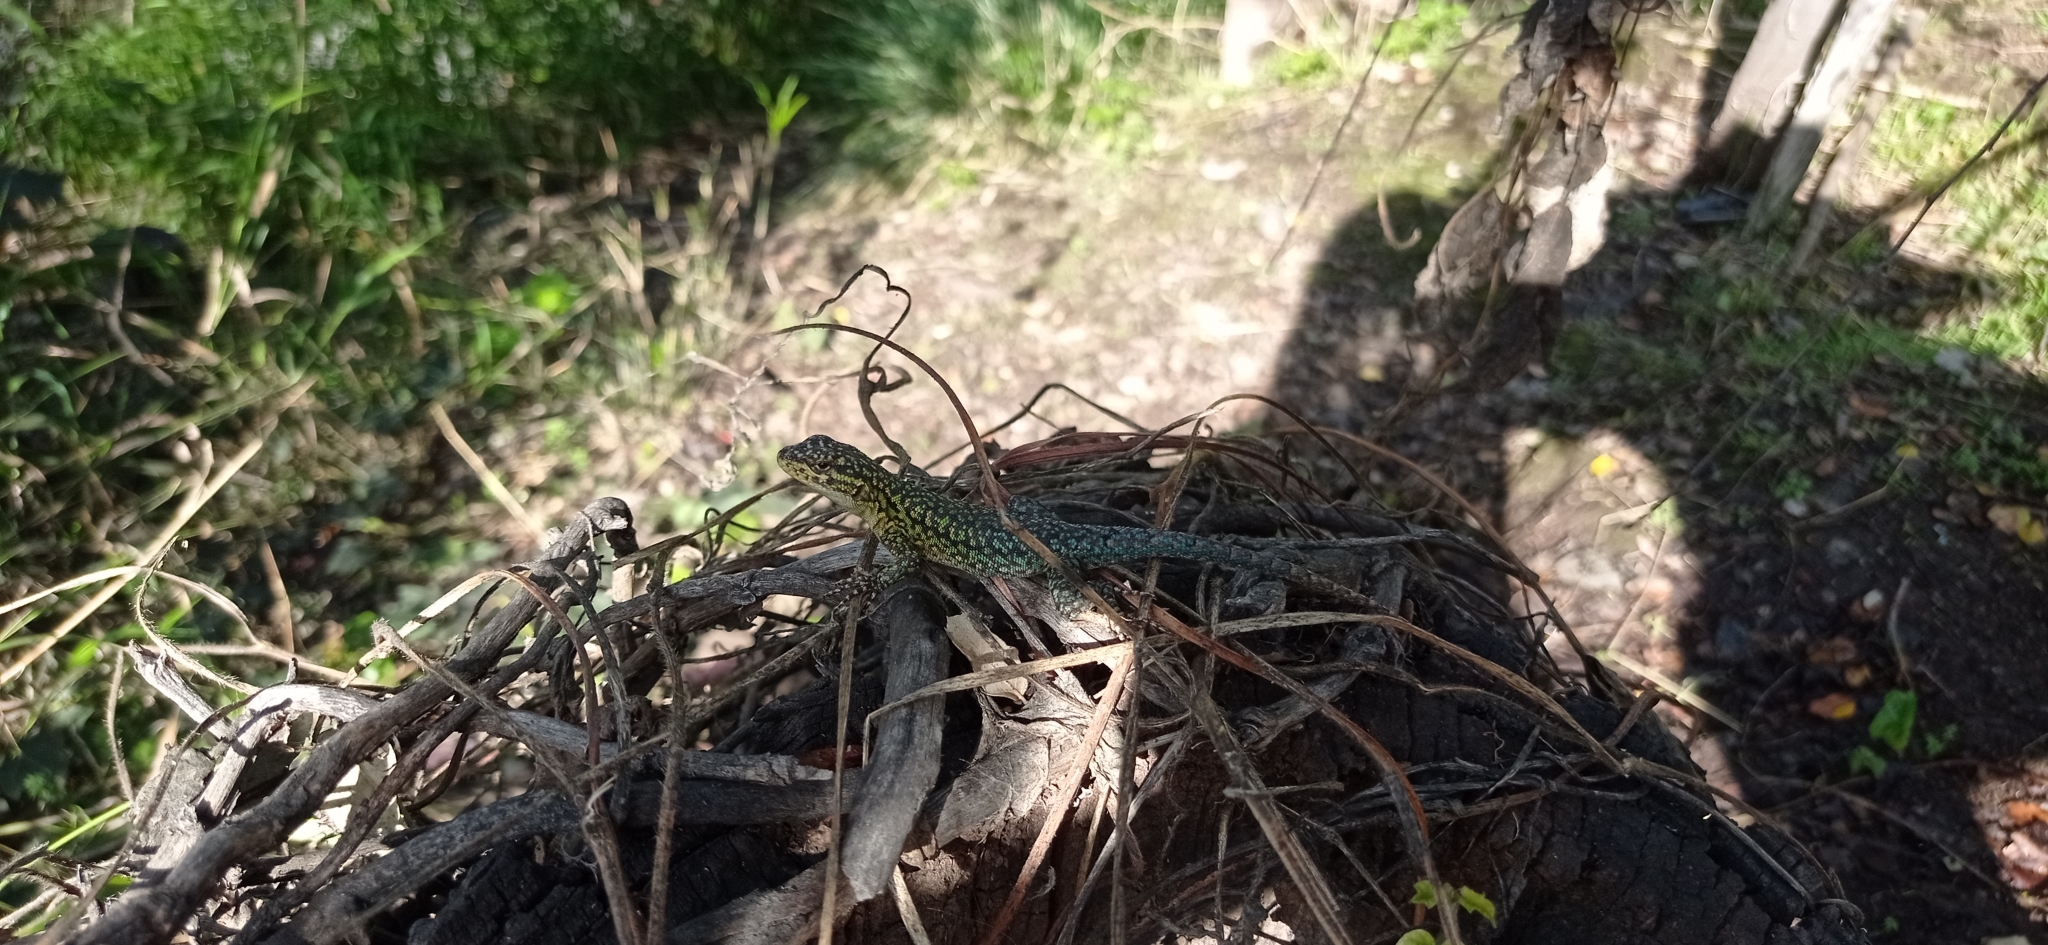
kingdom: Animalia
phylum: Chordata
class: Squamata
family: Liolaemidae
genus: Liolaemus
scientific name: Liolaemus tenuis
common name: Thin tree iguana
